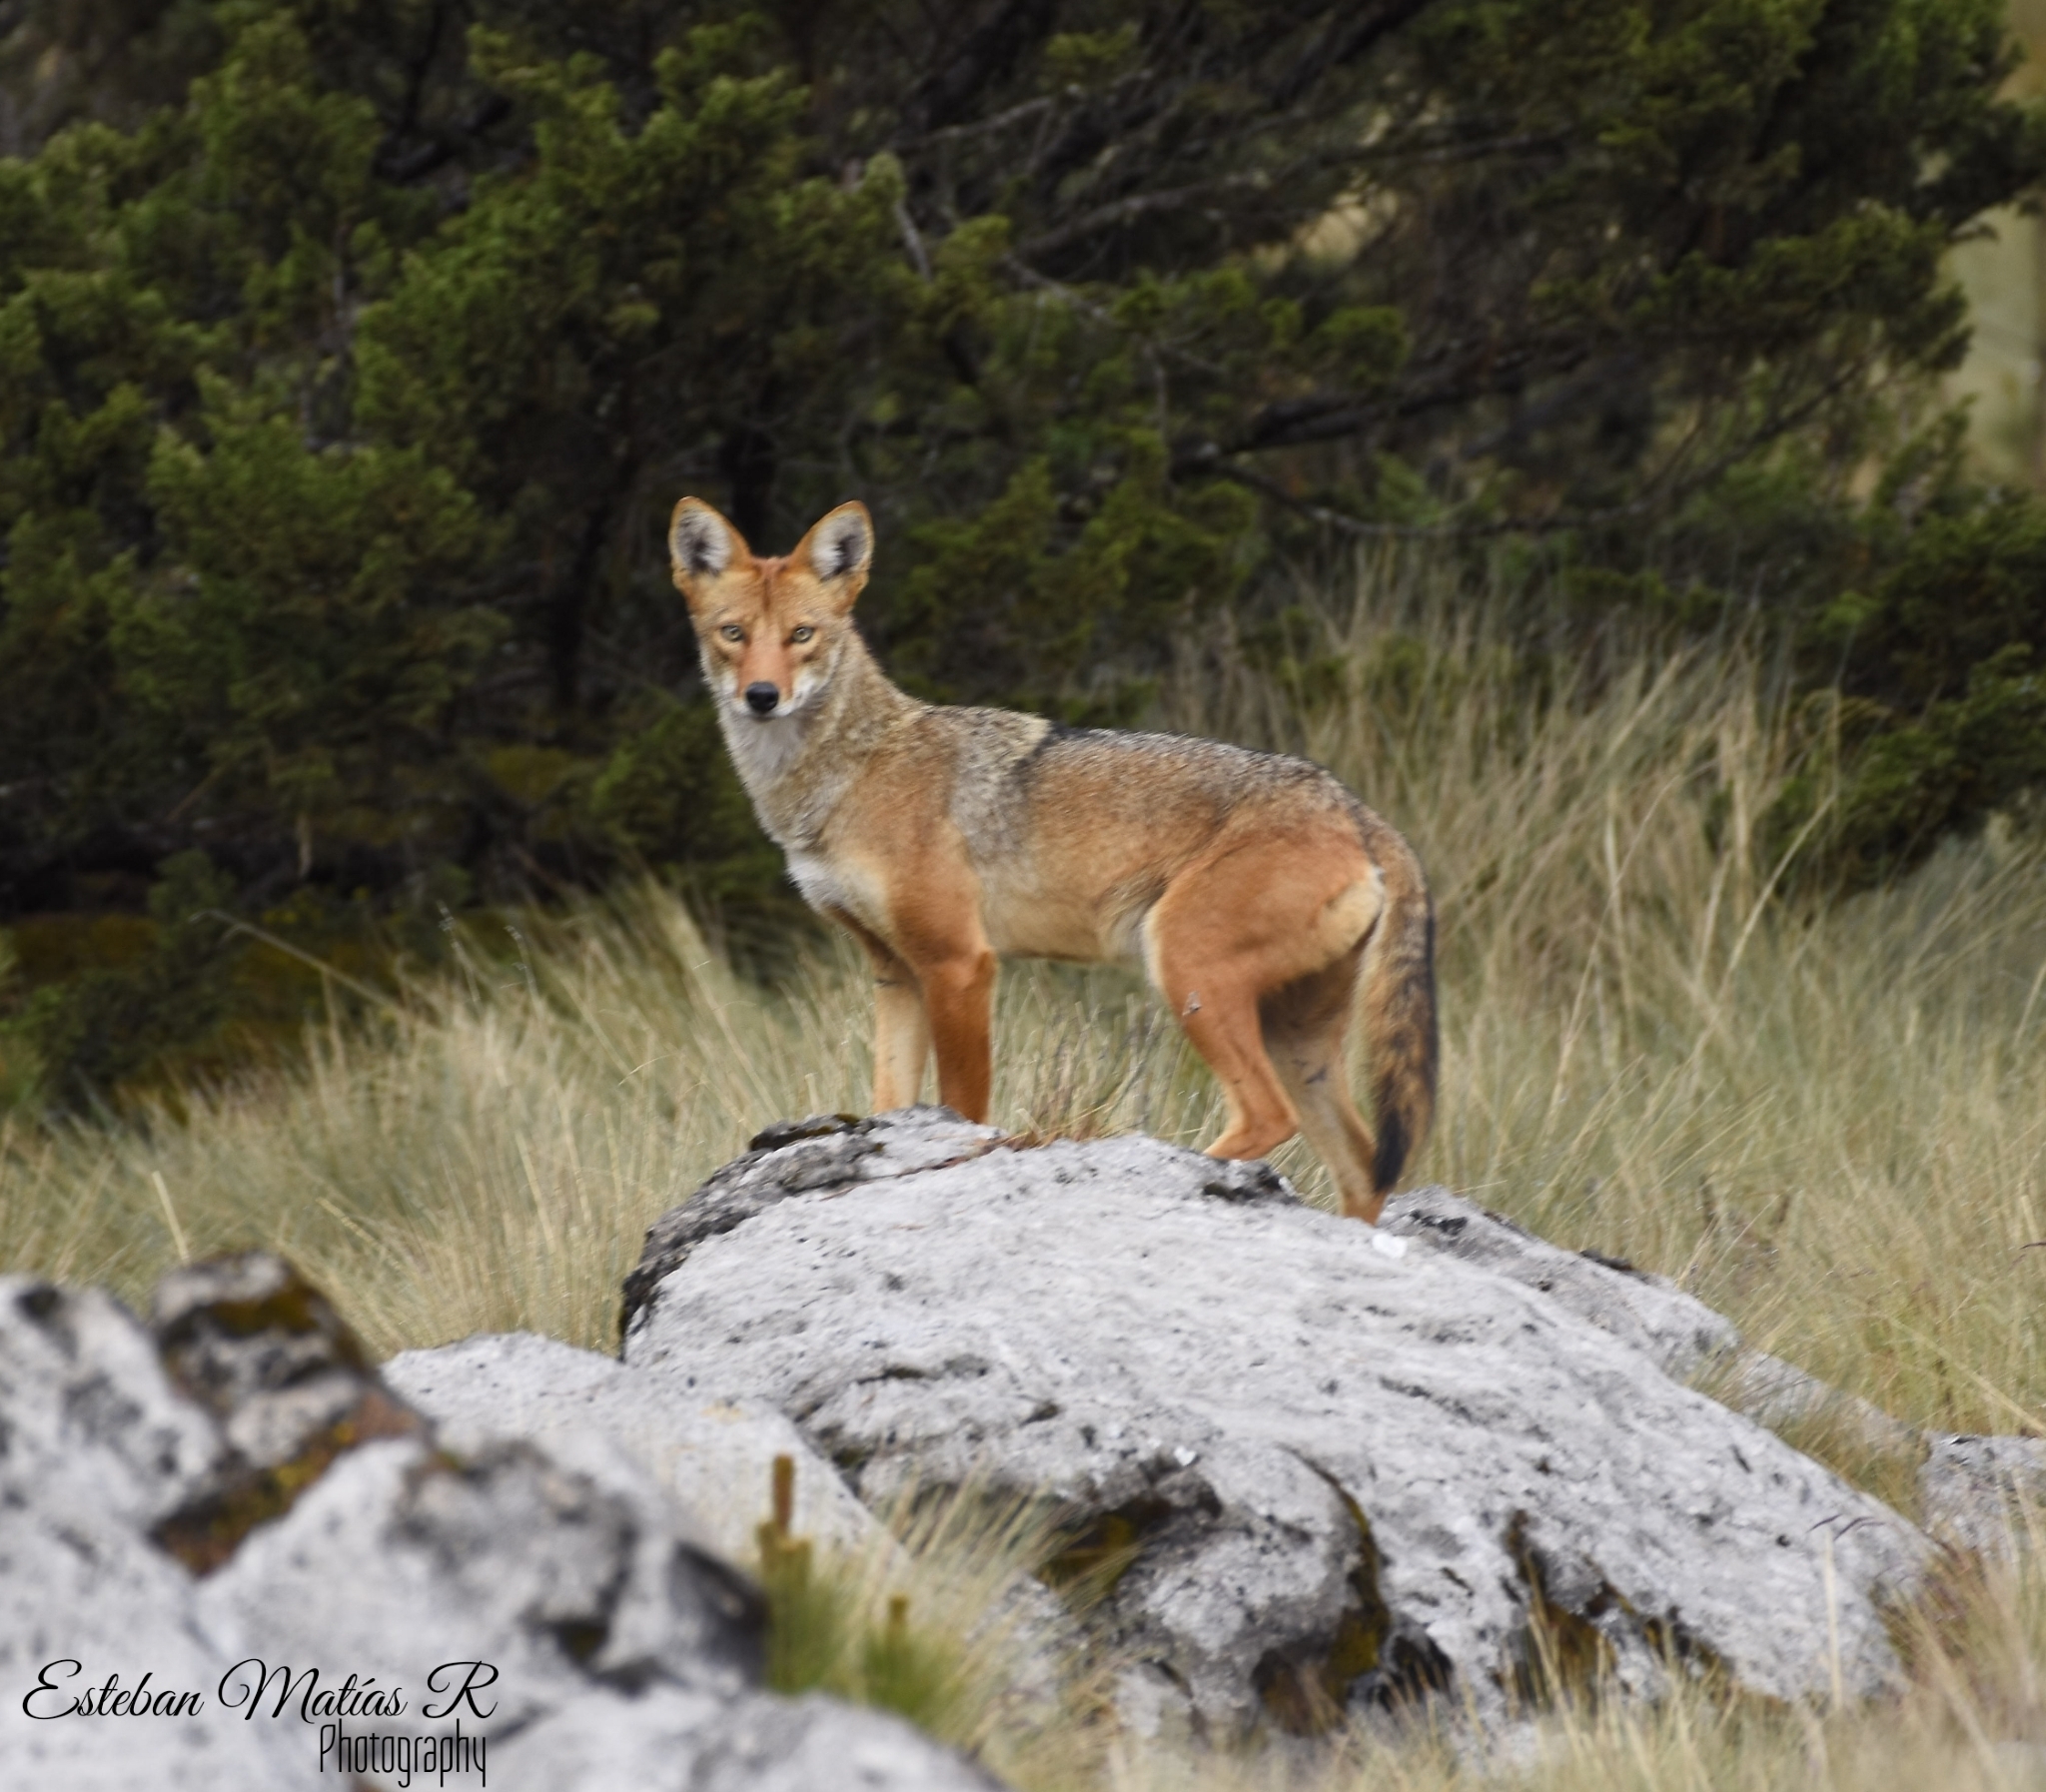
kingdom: Animalia
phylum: Chordata
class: Mammalia
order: Carnivora
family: Canidae
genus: Canis
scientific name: Canis latrans
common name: Coyote
